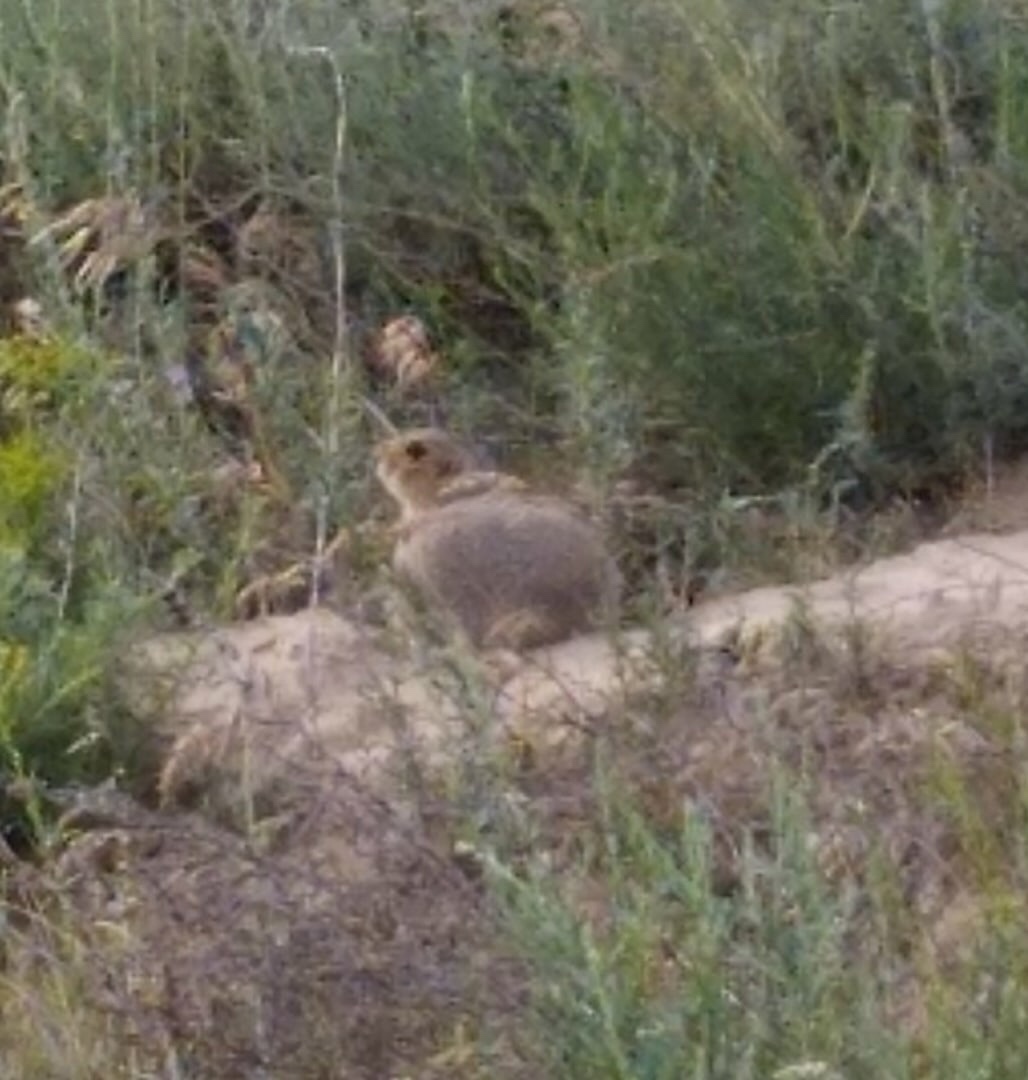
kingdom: Animalia
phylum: Chordata
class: Mammalia
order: Rodentia
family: Sciuridae
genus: Spermophilus
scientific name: Spermophilus major
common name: Russet ground squirrel
